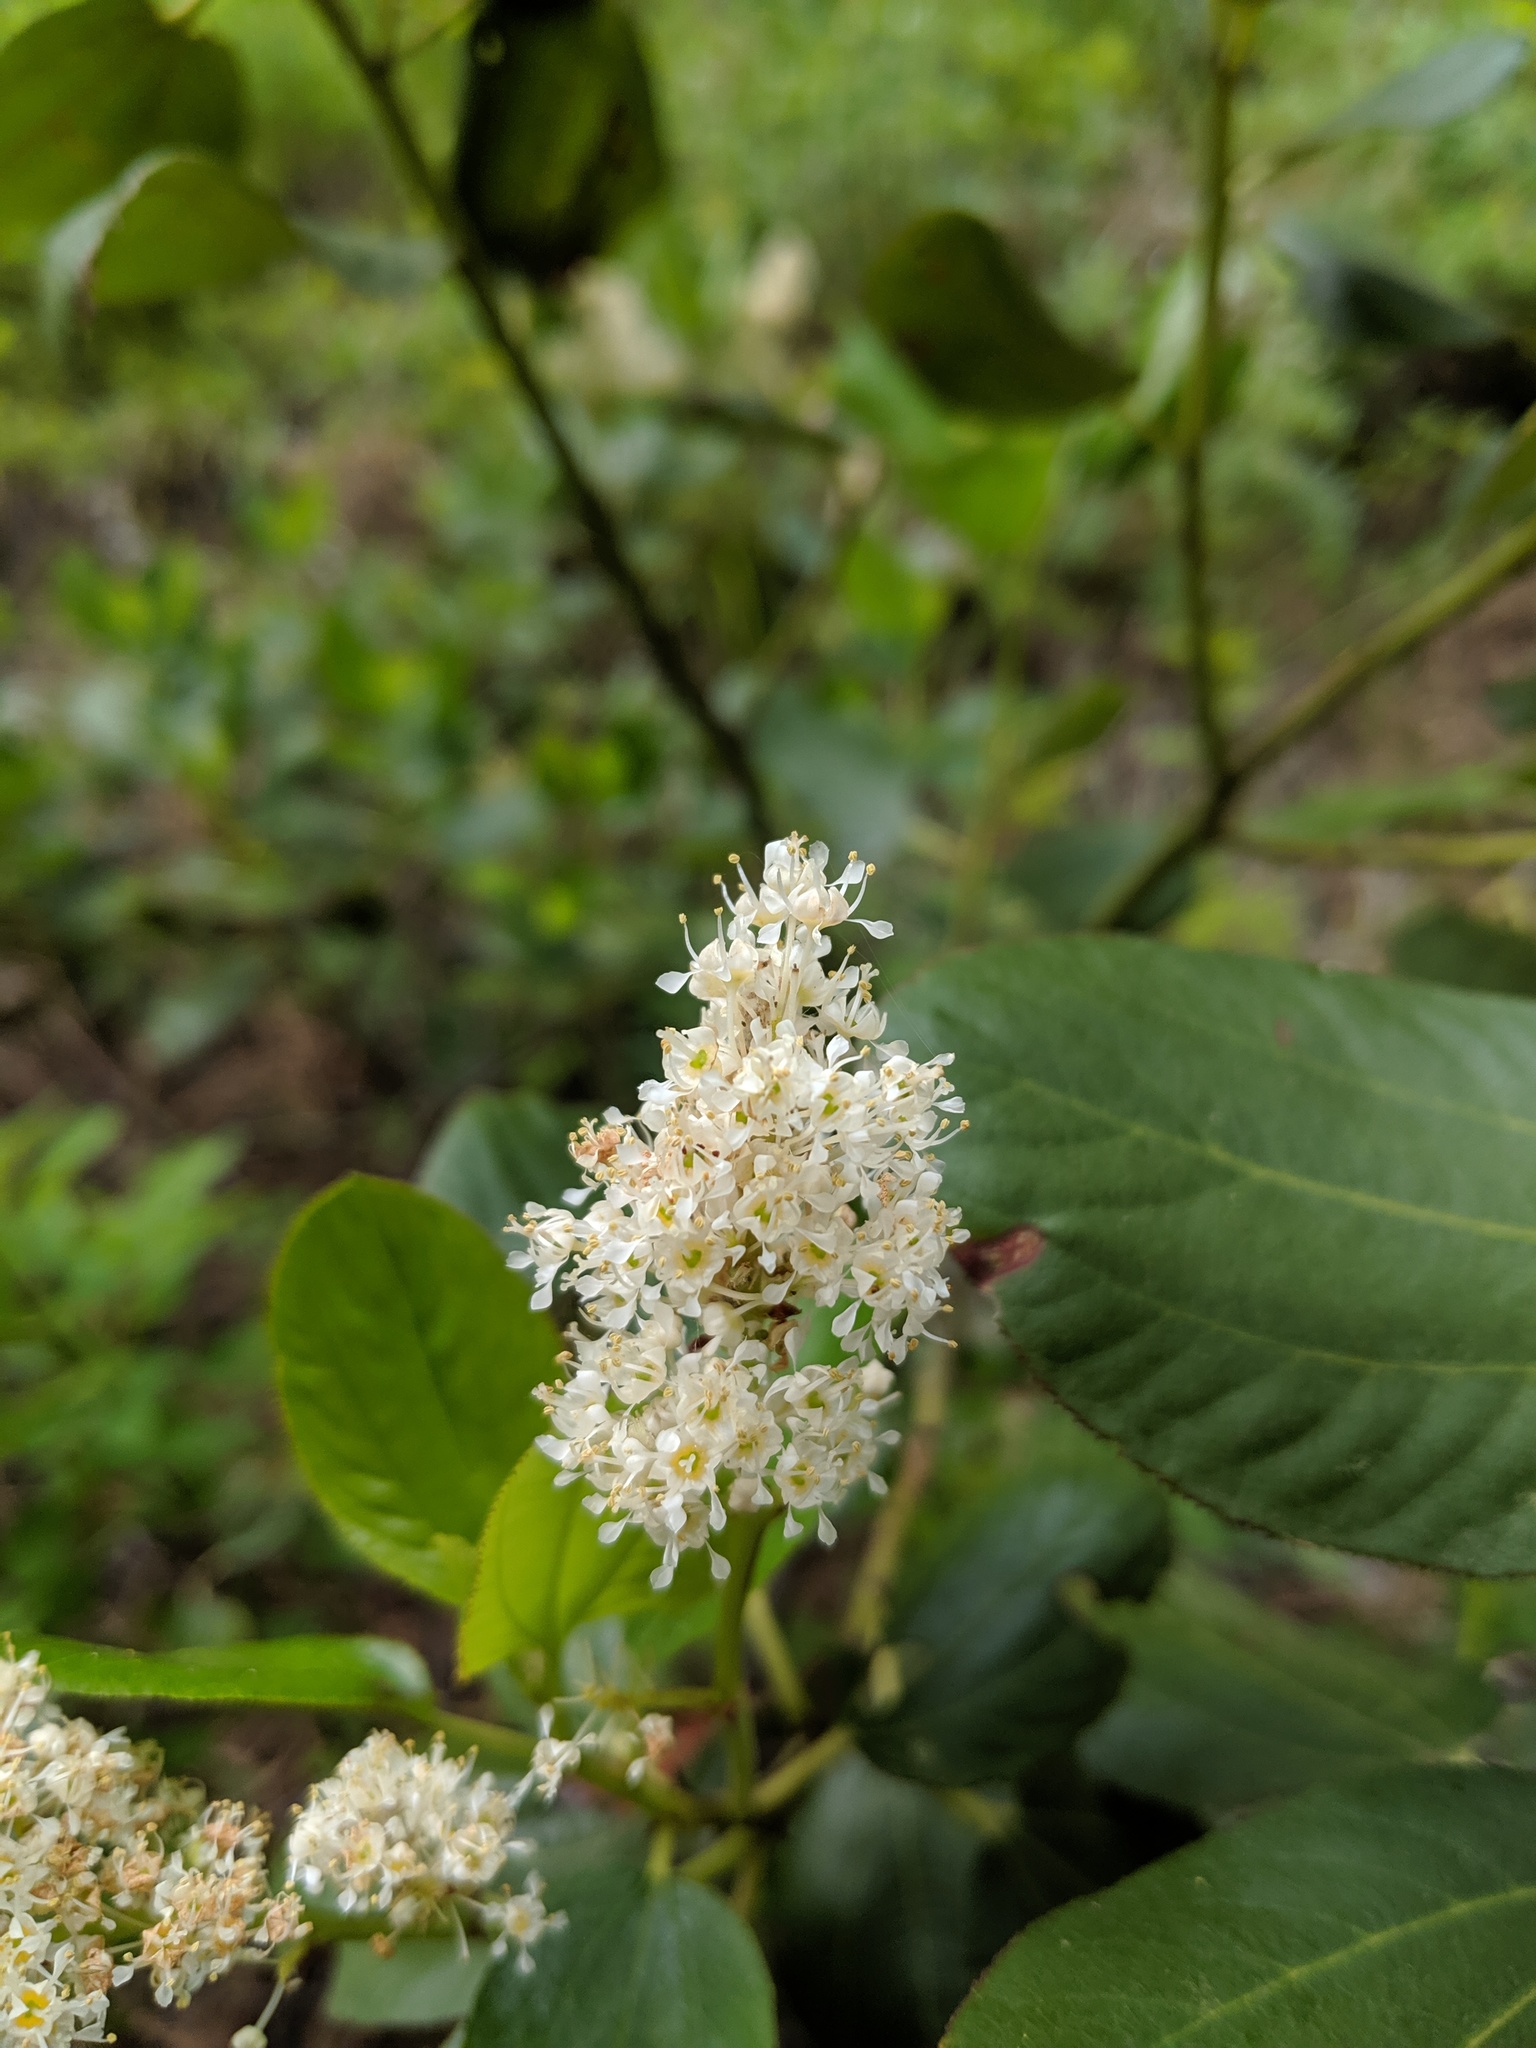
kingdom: Plantae
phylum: Tracheophyta
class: Magnoliopsida
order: Rosales
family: Rhamnaceae
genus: Ceanothus
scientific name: Ceanothus velutinus
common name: Snowbrush
